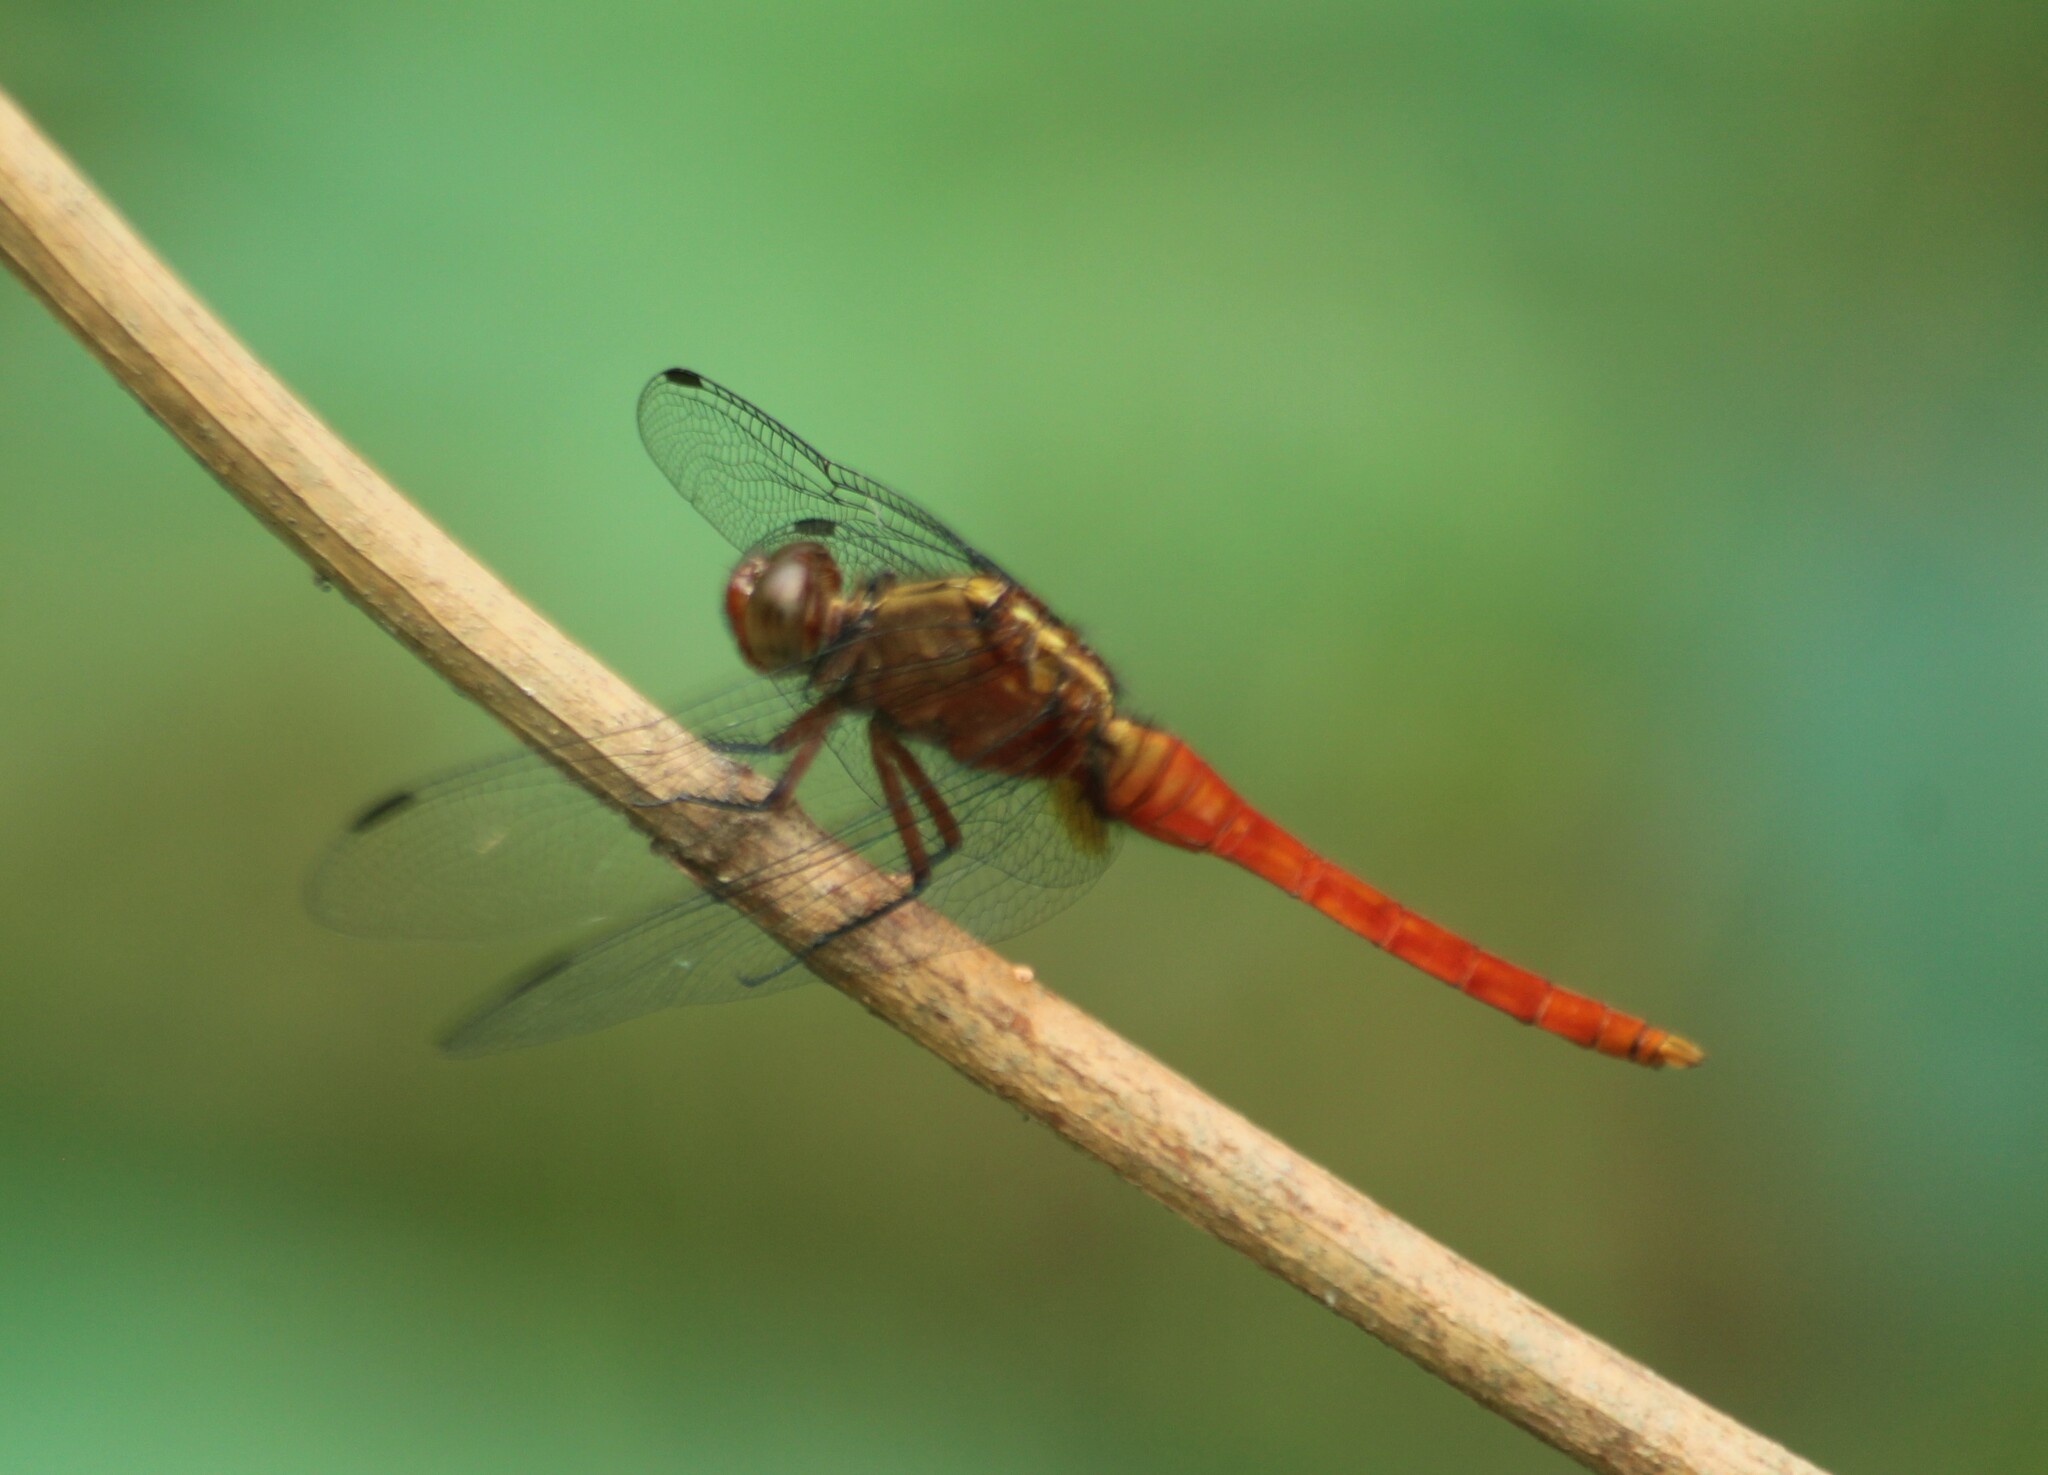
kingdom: Animalia
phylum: Arthropoda
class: Insecta
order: Odonata
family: Libellulidae
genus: Rhodothemis
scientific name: Rhodothemis rufa
